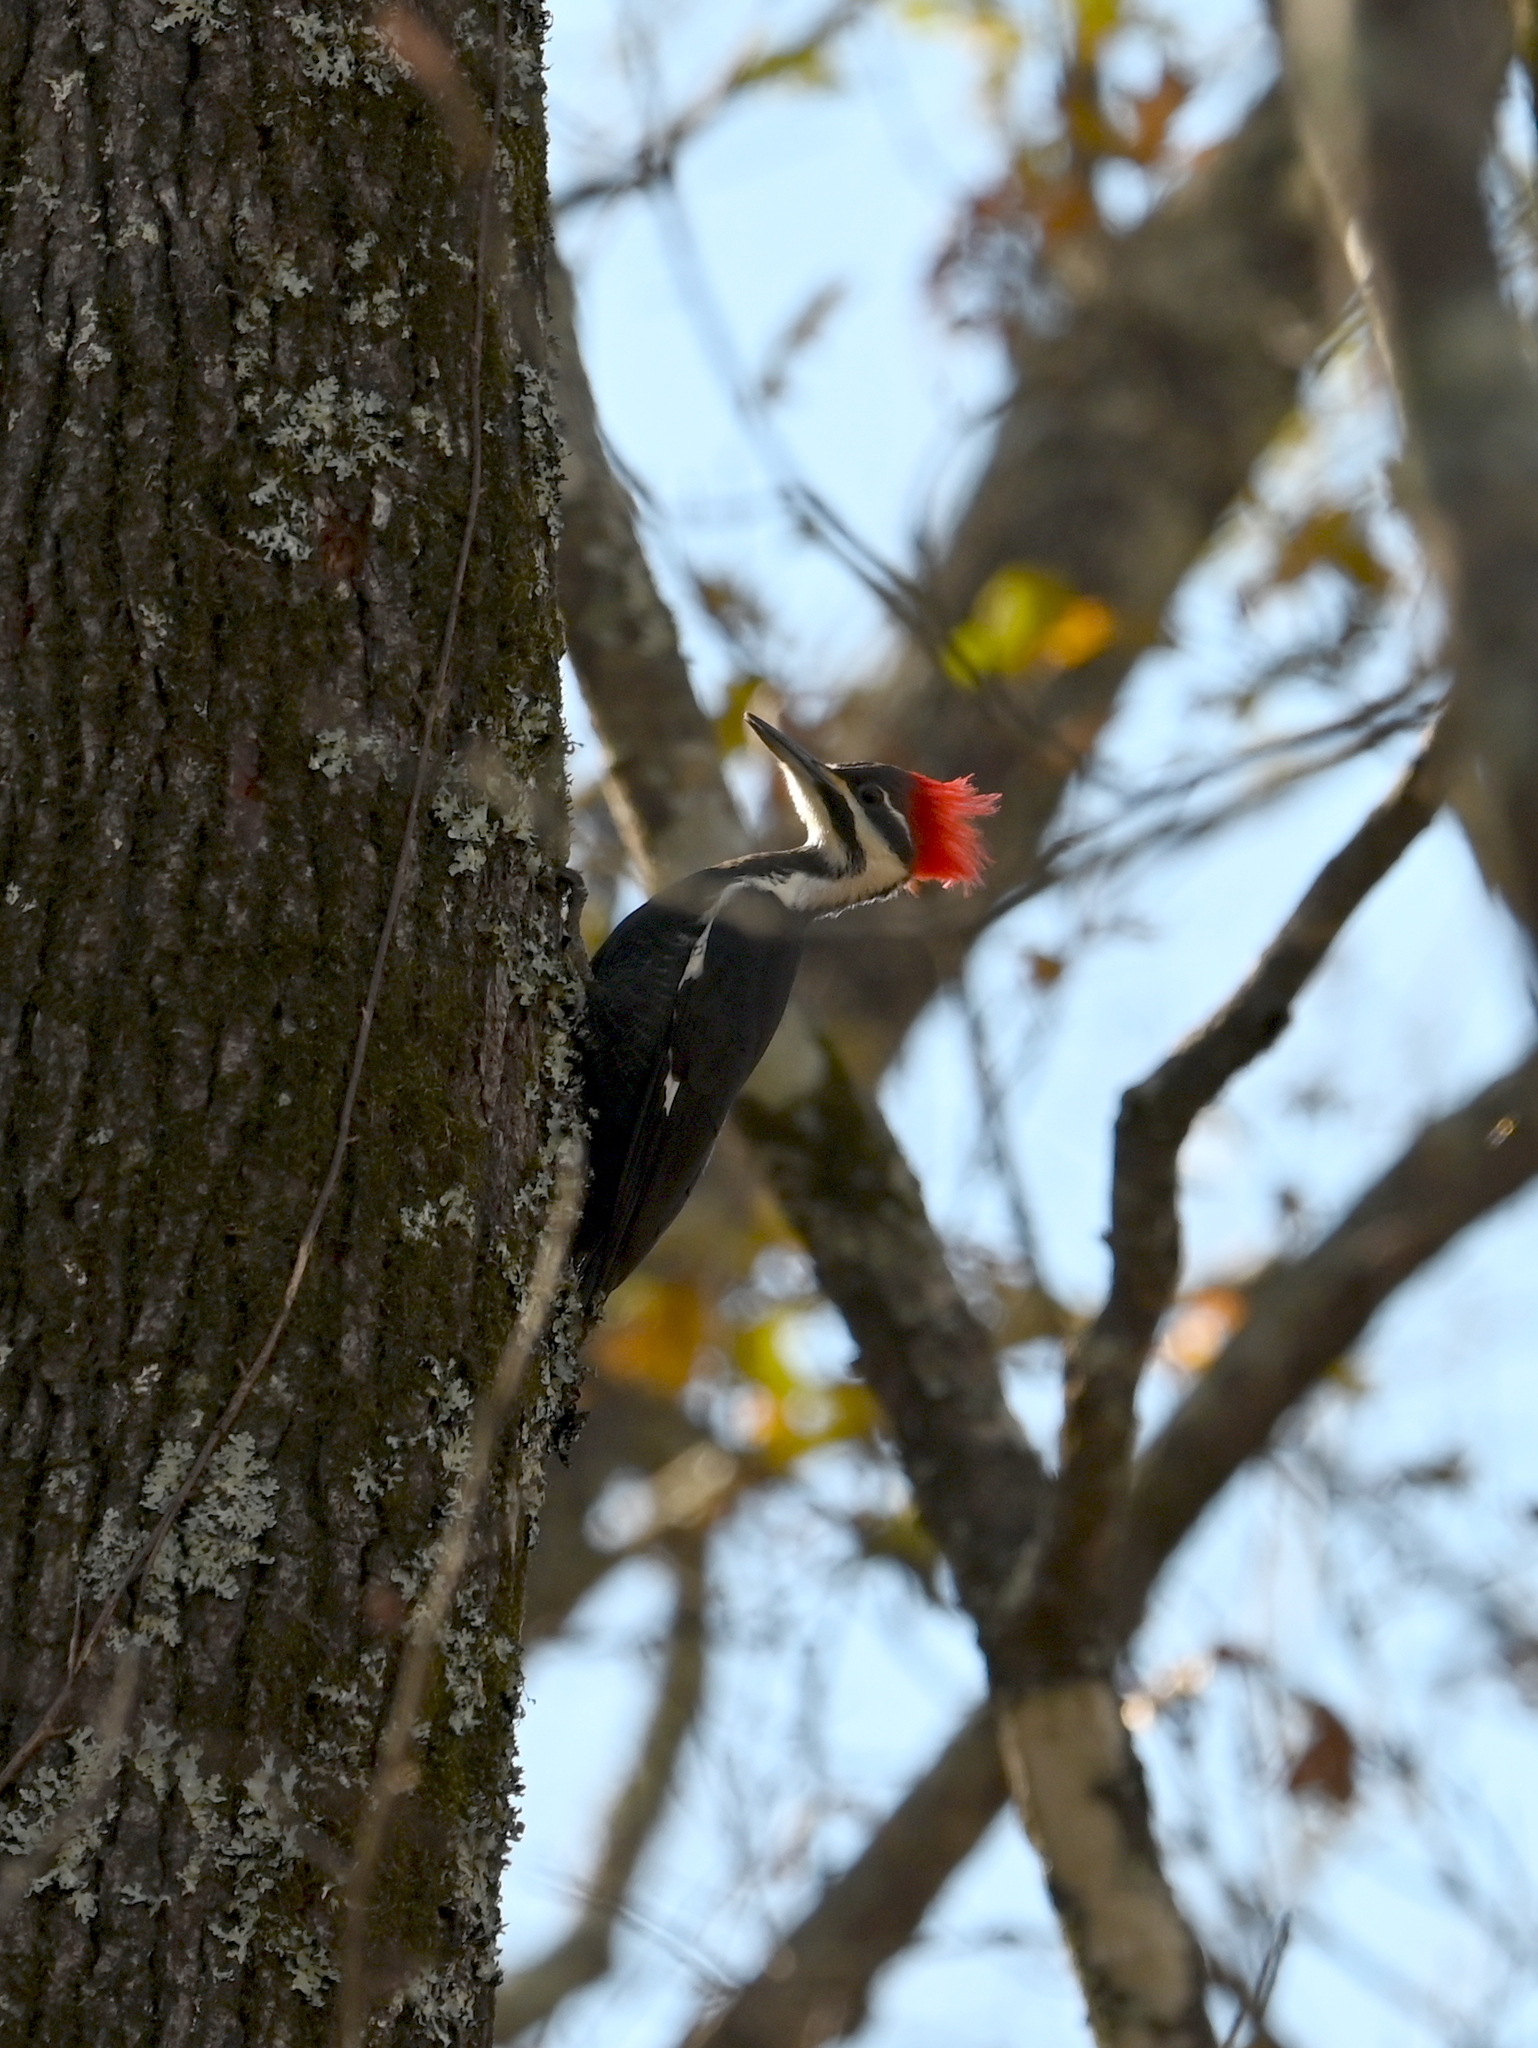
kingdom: Animalia
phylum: Chordata
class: Aves
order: Piciformes
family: Picidae
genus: Dryocopus
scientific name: Dryocopus pileatus
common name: Pileated woodpecker
